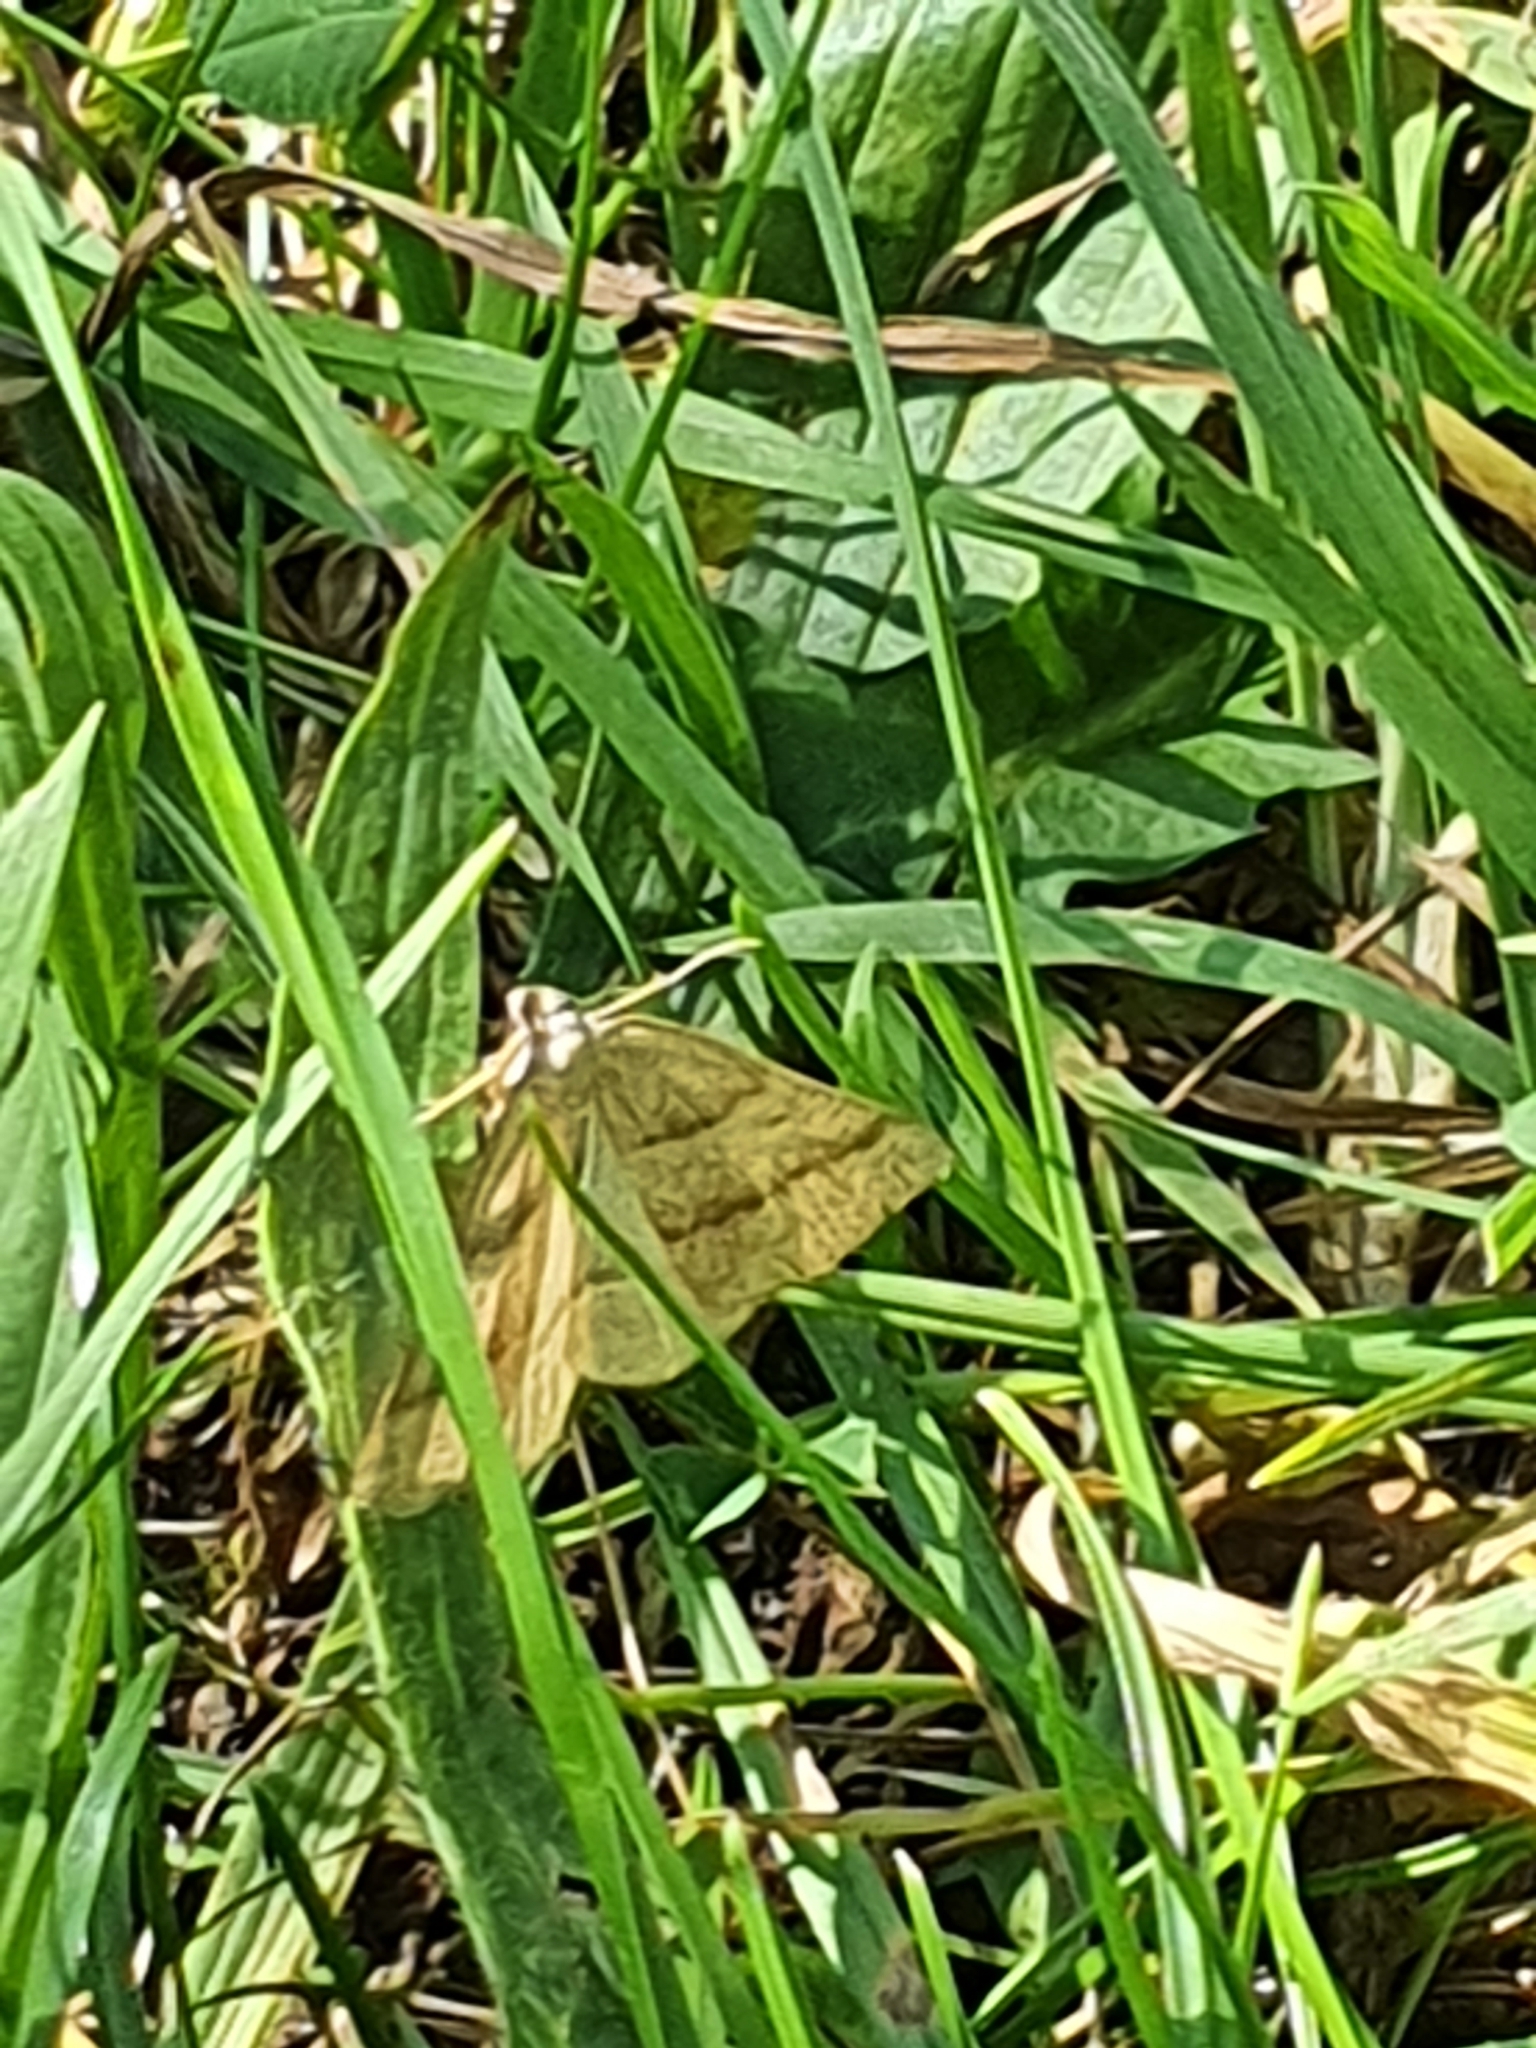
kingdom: Animalia
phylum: Arthropoda
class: Insecta
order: Lepidoptera
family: Pterophoridae
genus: Pterophorus
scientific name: Pterophorus Petrophora chlorosata
